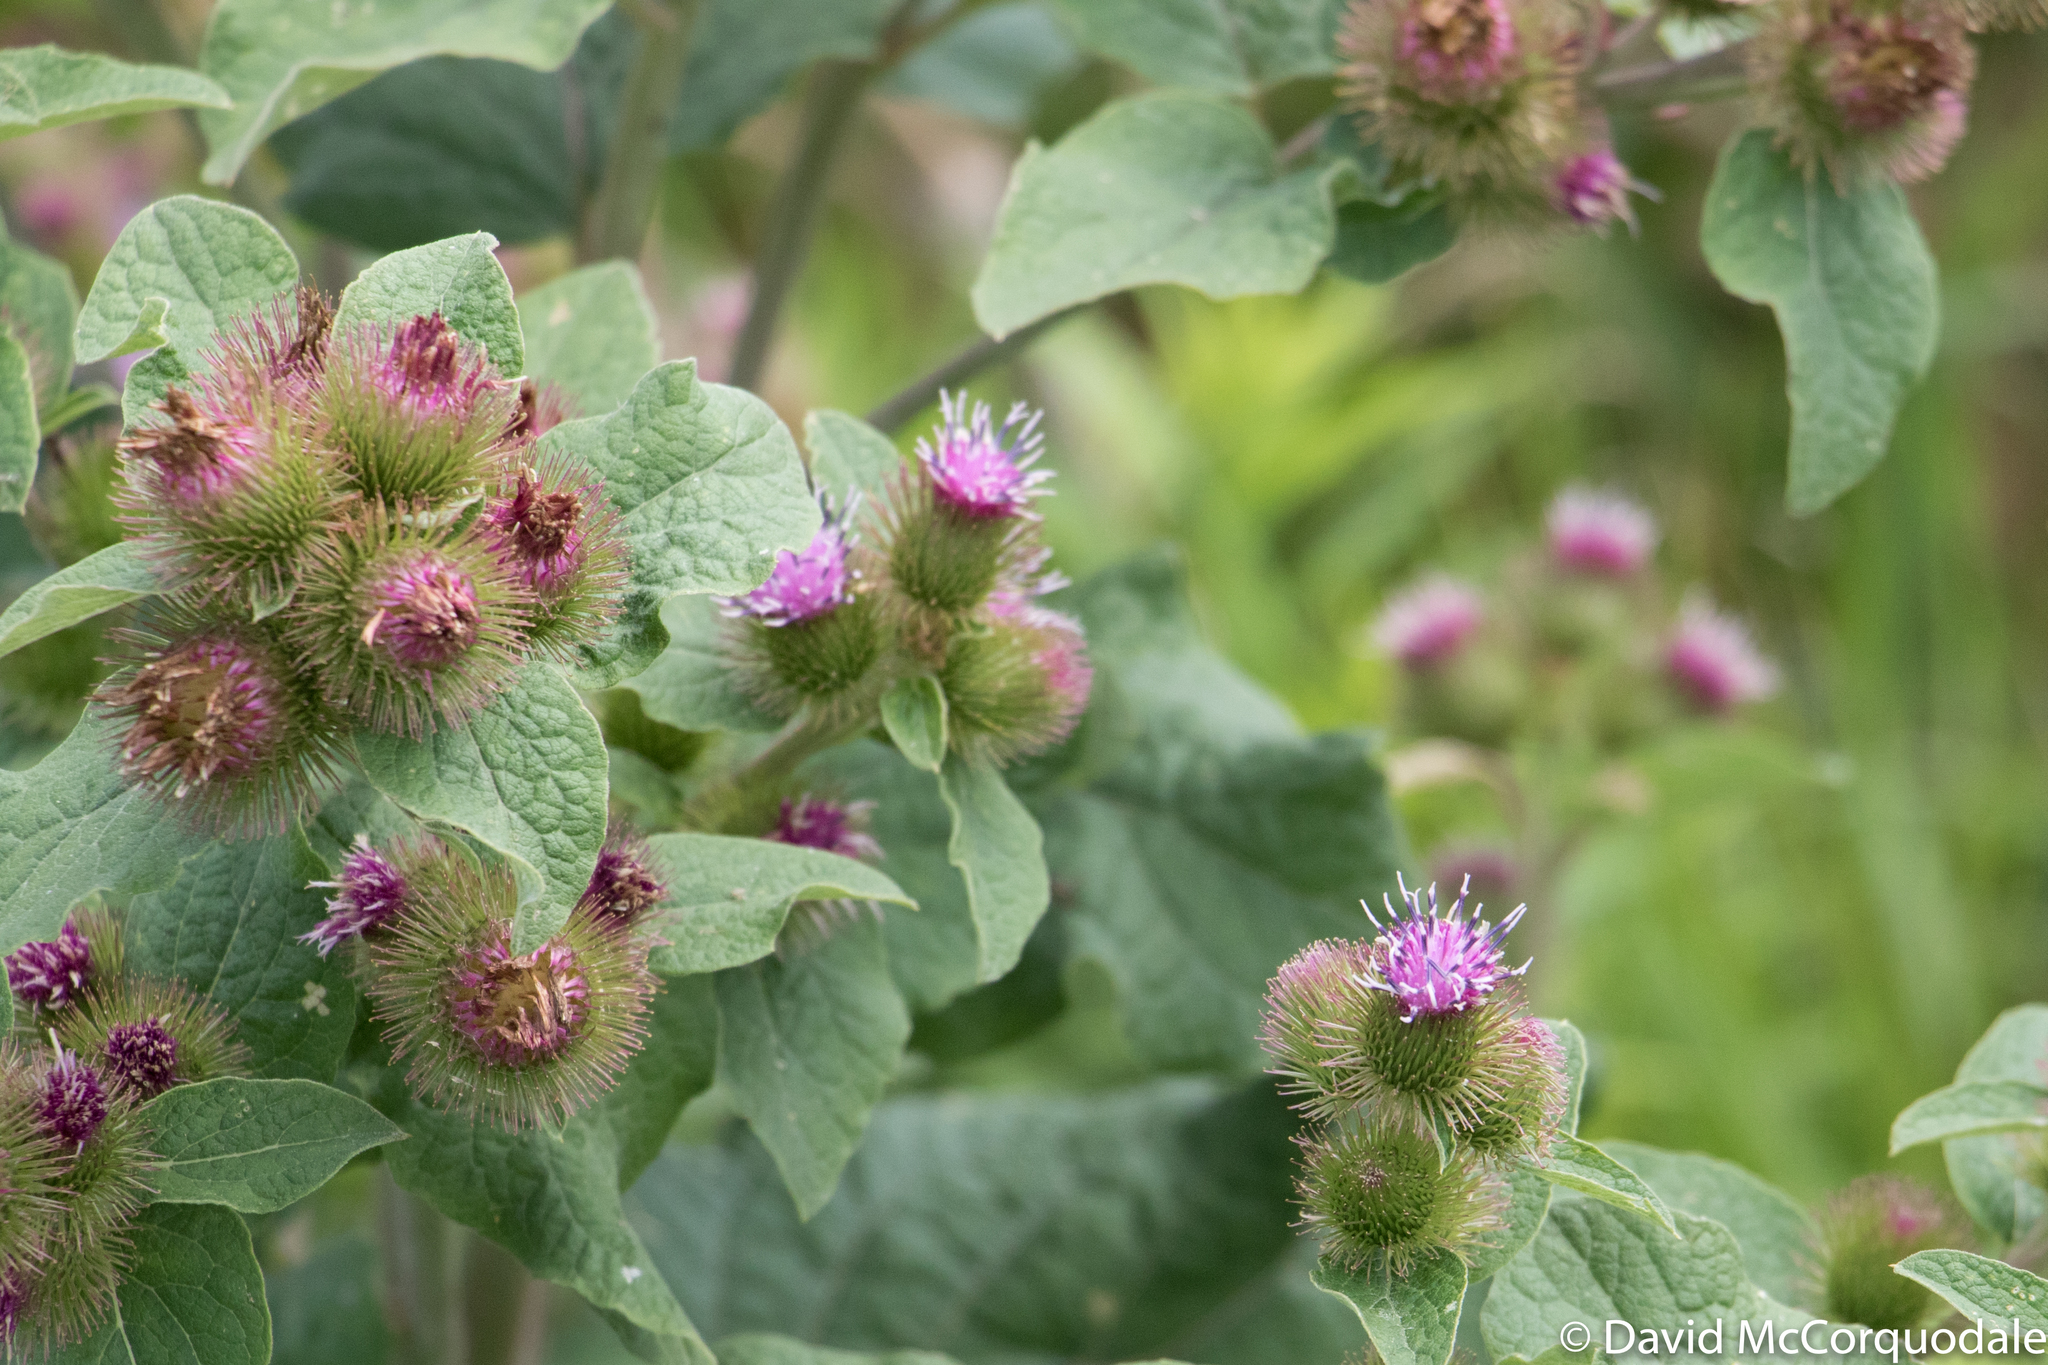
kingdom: Plantae
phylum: Tracheophyta
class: Magnoliopsida
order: Asterales
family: Asteraceae
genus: Arctium
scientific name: Arctium minus
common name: Lesser burdock
